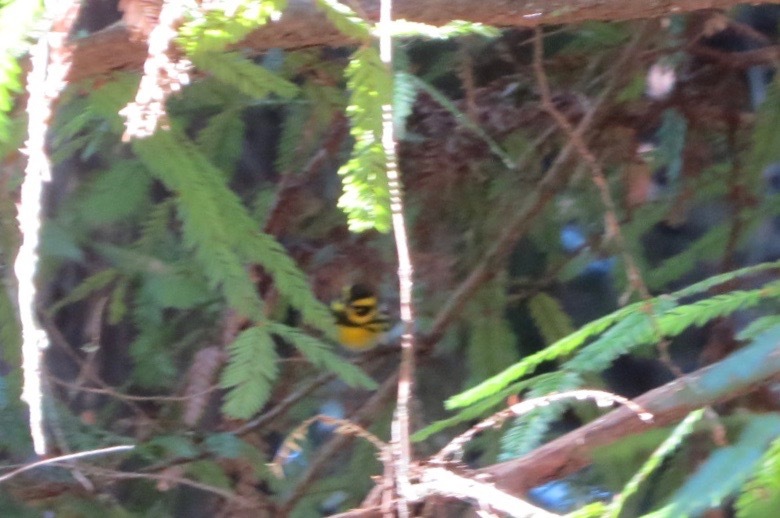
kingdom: Animalia
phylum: Chordata
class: Aves
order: Passeriformes
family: Parulidae
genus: Setophaga
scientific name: Setophaga townsendi
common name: Townsend's warbler
